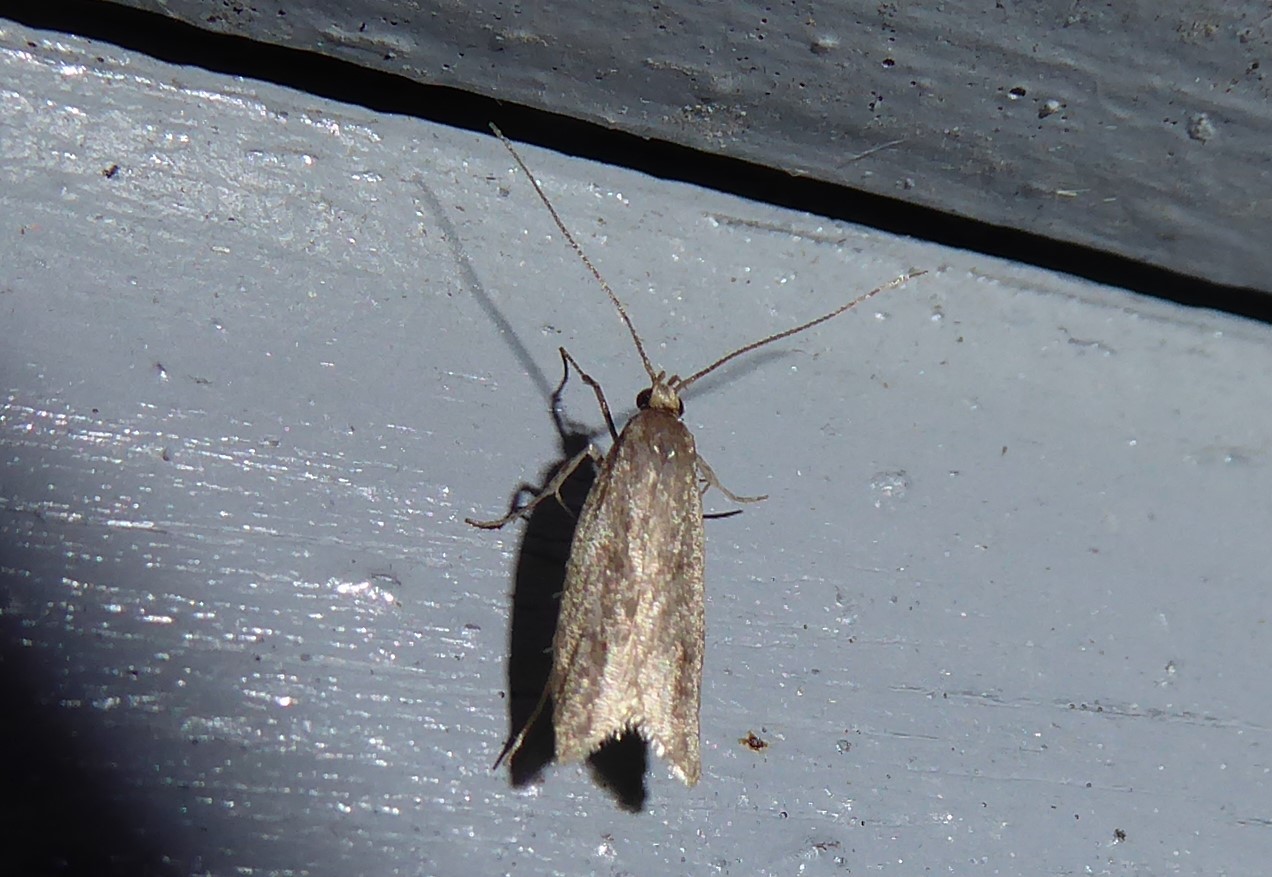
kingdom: Animalia
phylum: Arthropoda
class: Insecta
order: Lepidoptera
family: Oecophoridae
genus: Gymnobathra
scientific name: Gymnobathra tholodella
